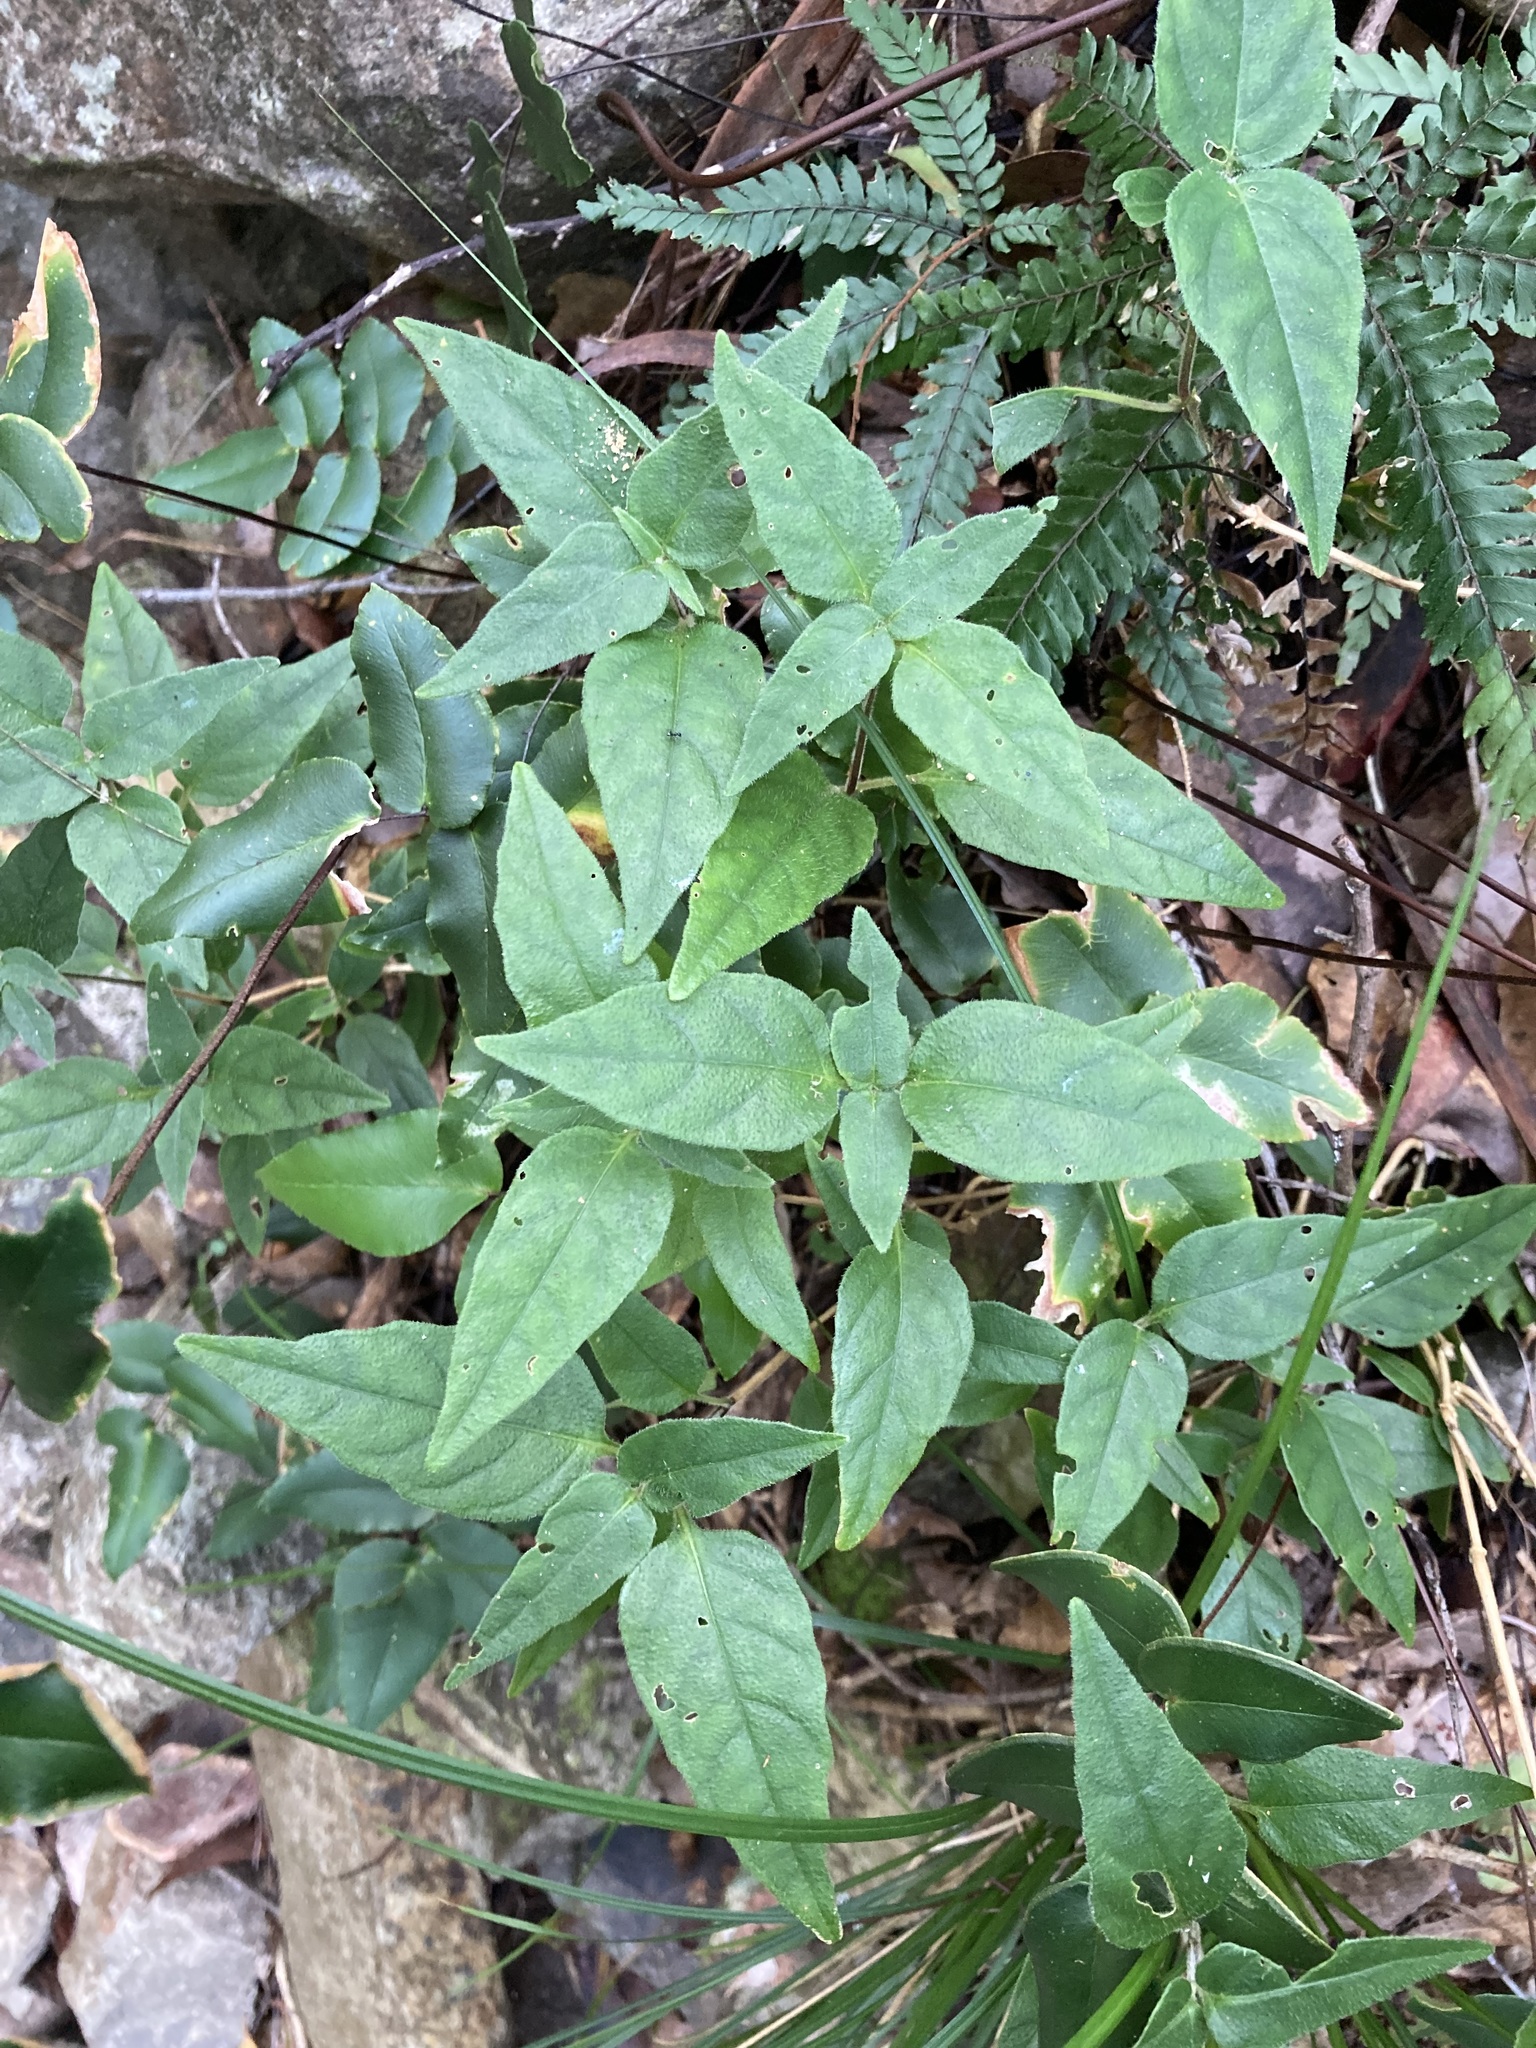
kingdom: Plantae
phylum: Tracheophyta
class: Magnoliopsida
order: Lamiales
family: Acanthaceae
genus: Pseuderanthemum
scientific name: Pseuderanthemum variabile
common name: Night and afternoon
